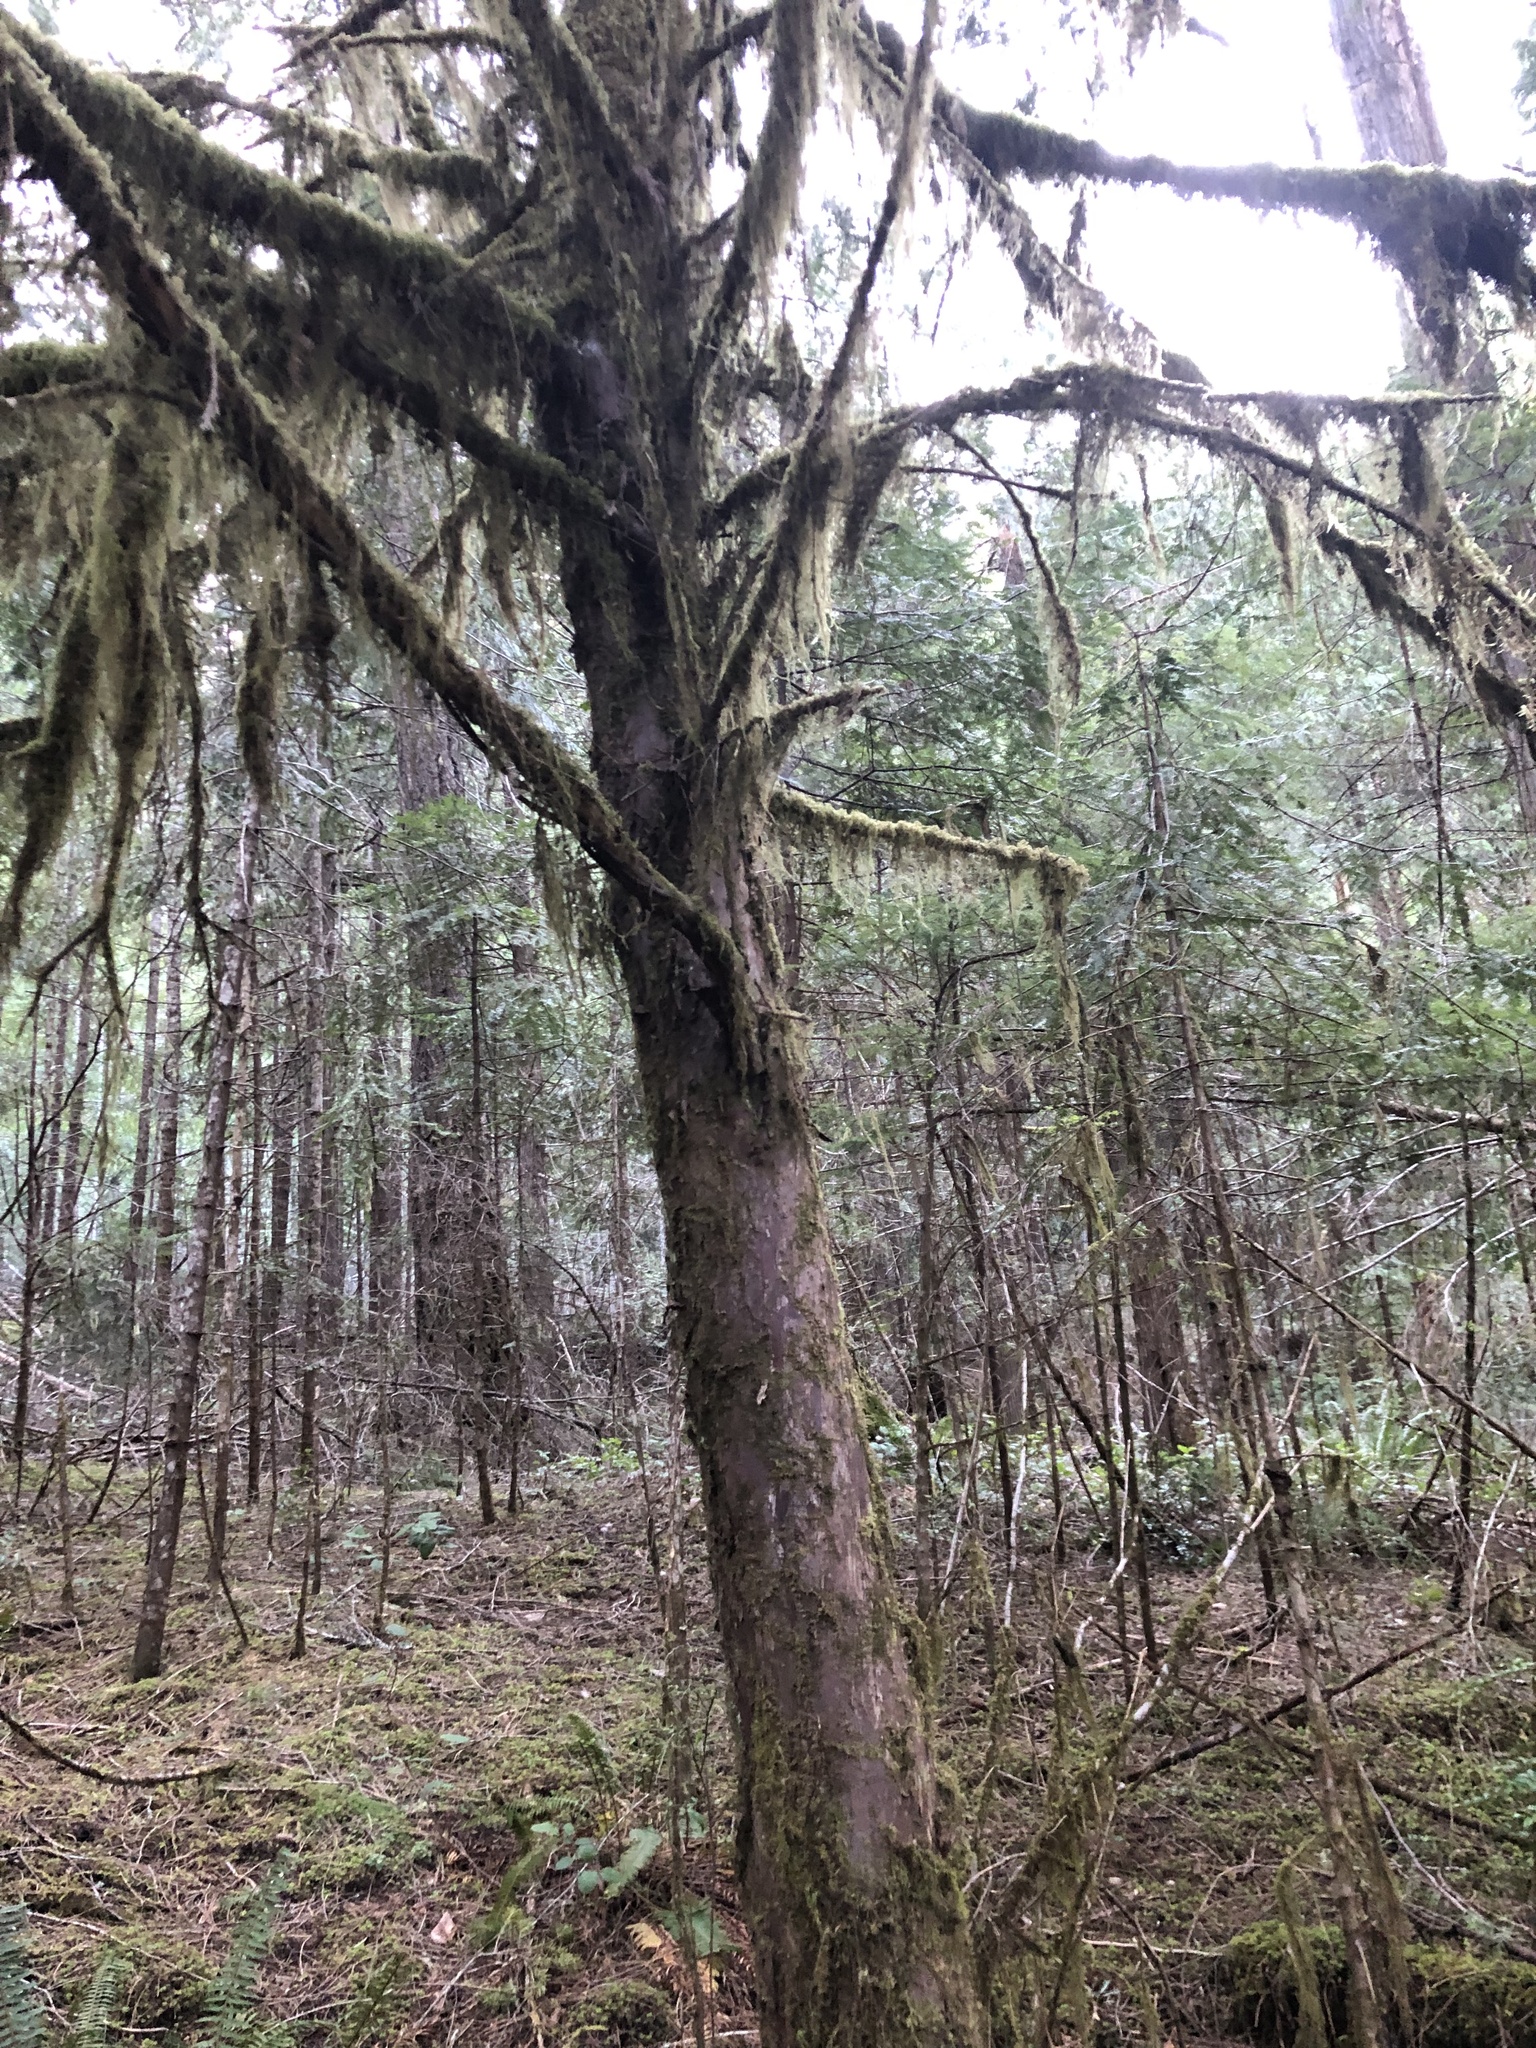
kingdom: Plantae
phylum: Tracheophyta
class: Pinopsida
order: Pinales
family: Taxaceae
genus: Taxus
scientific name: Taxus brevifolia
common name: Pacific yew
